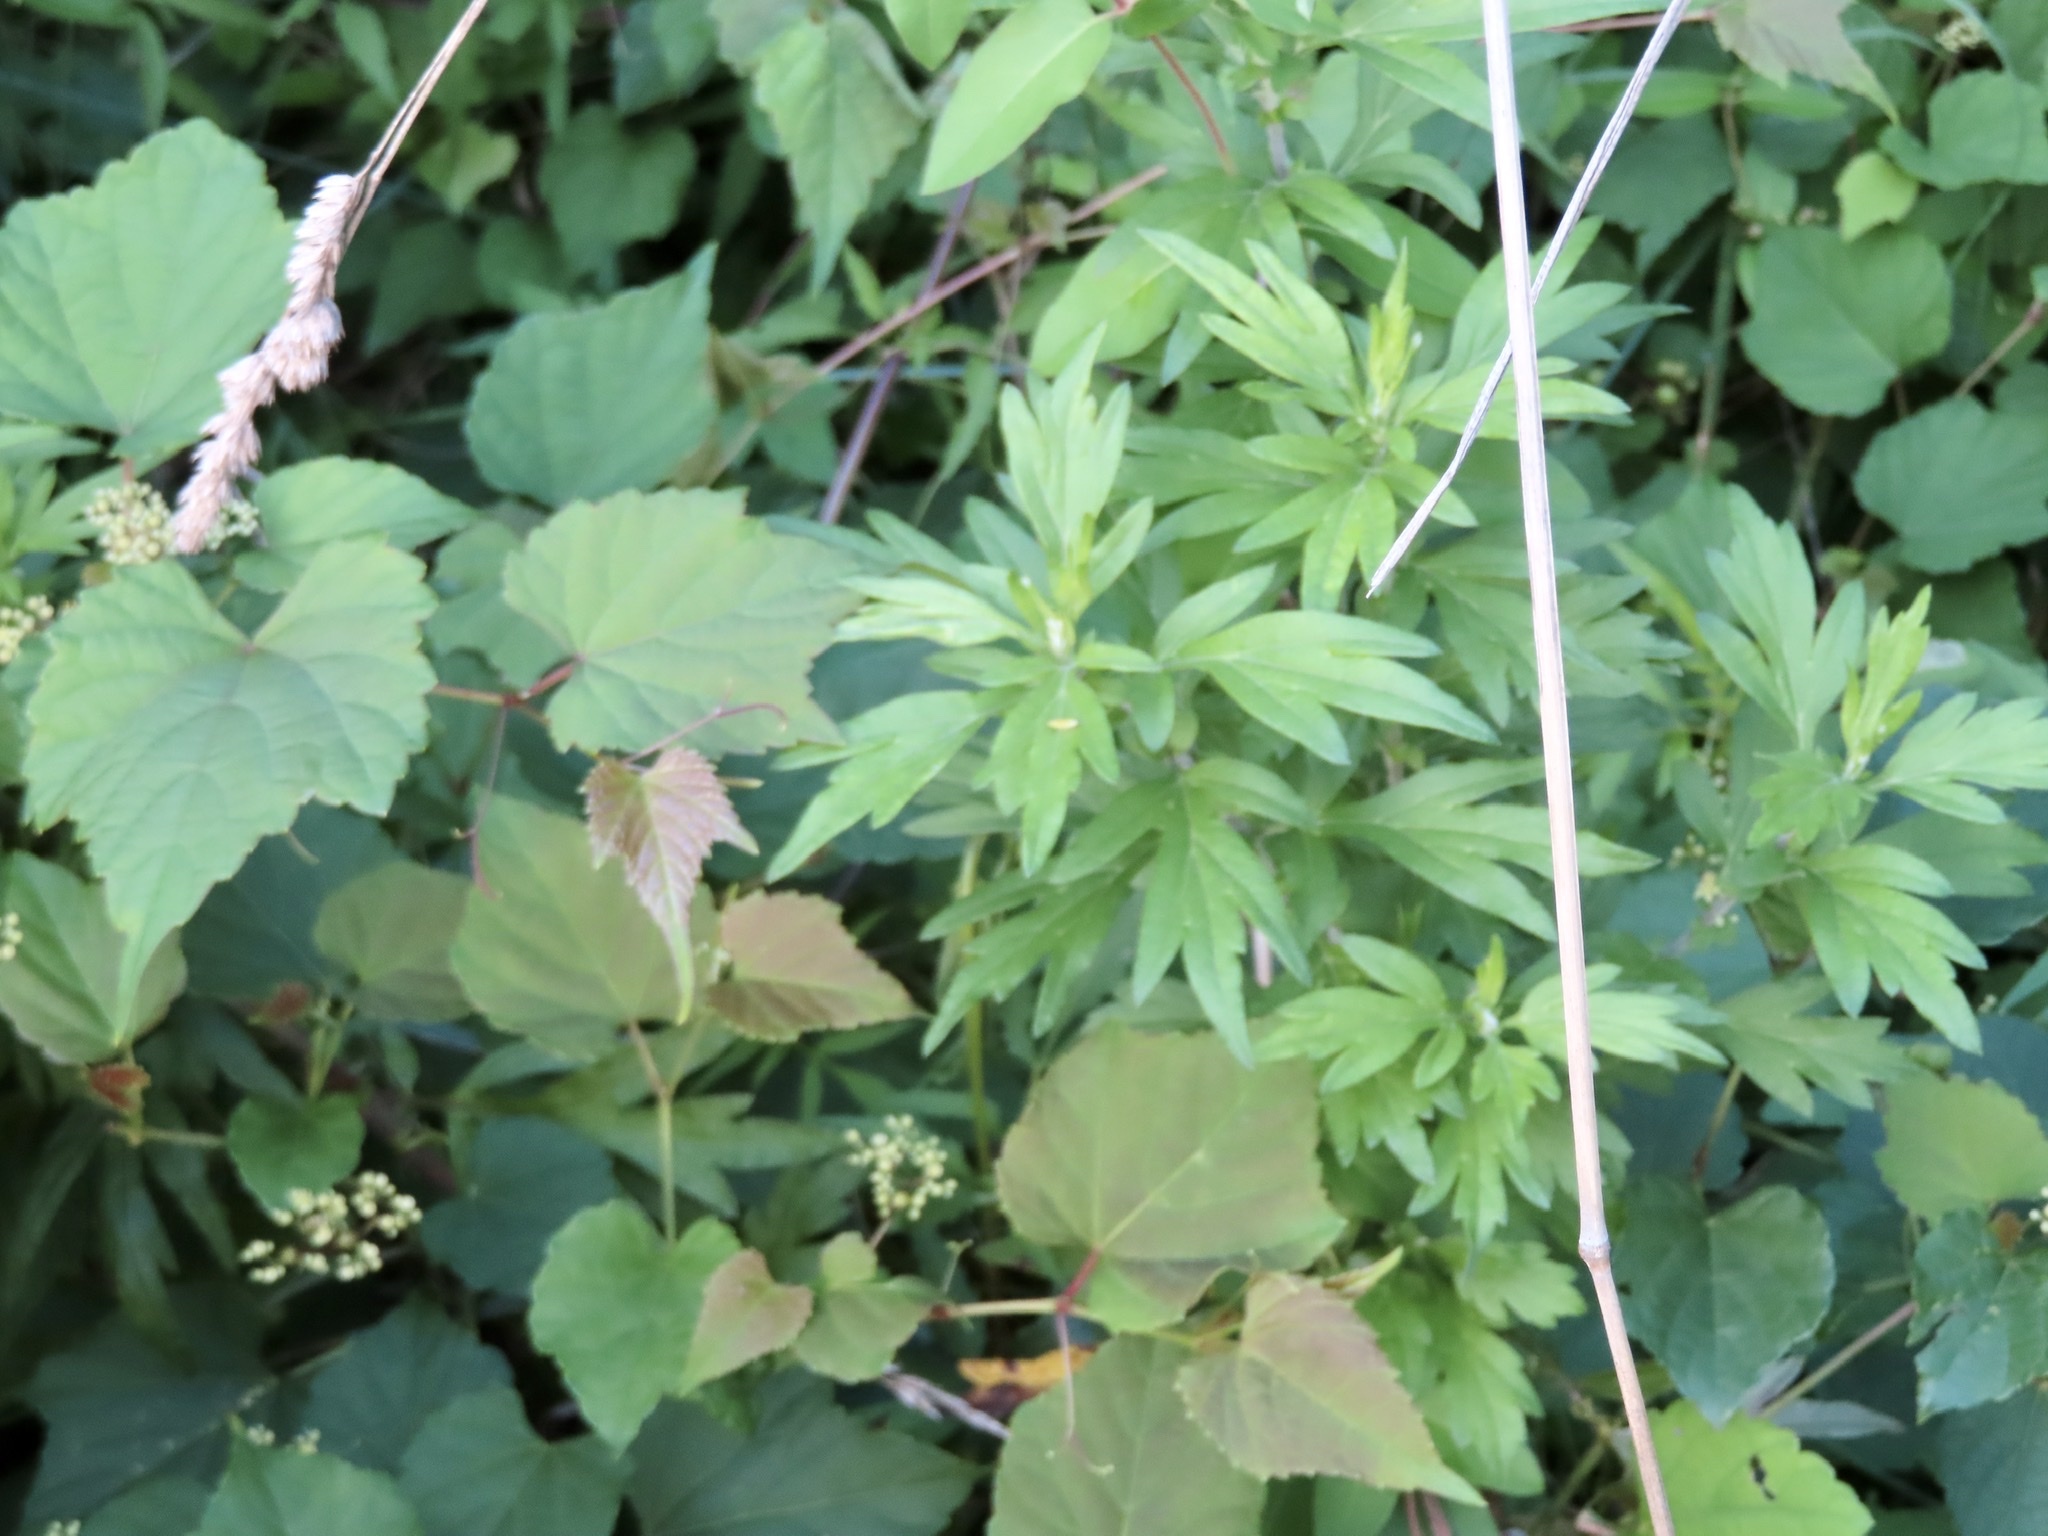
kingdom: Animalia
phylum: Arthropoda
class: Insecta
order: Hemiptera
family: Cicadellidae
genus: Graphocephala
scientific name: Graphocephala versuta
